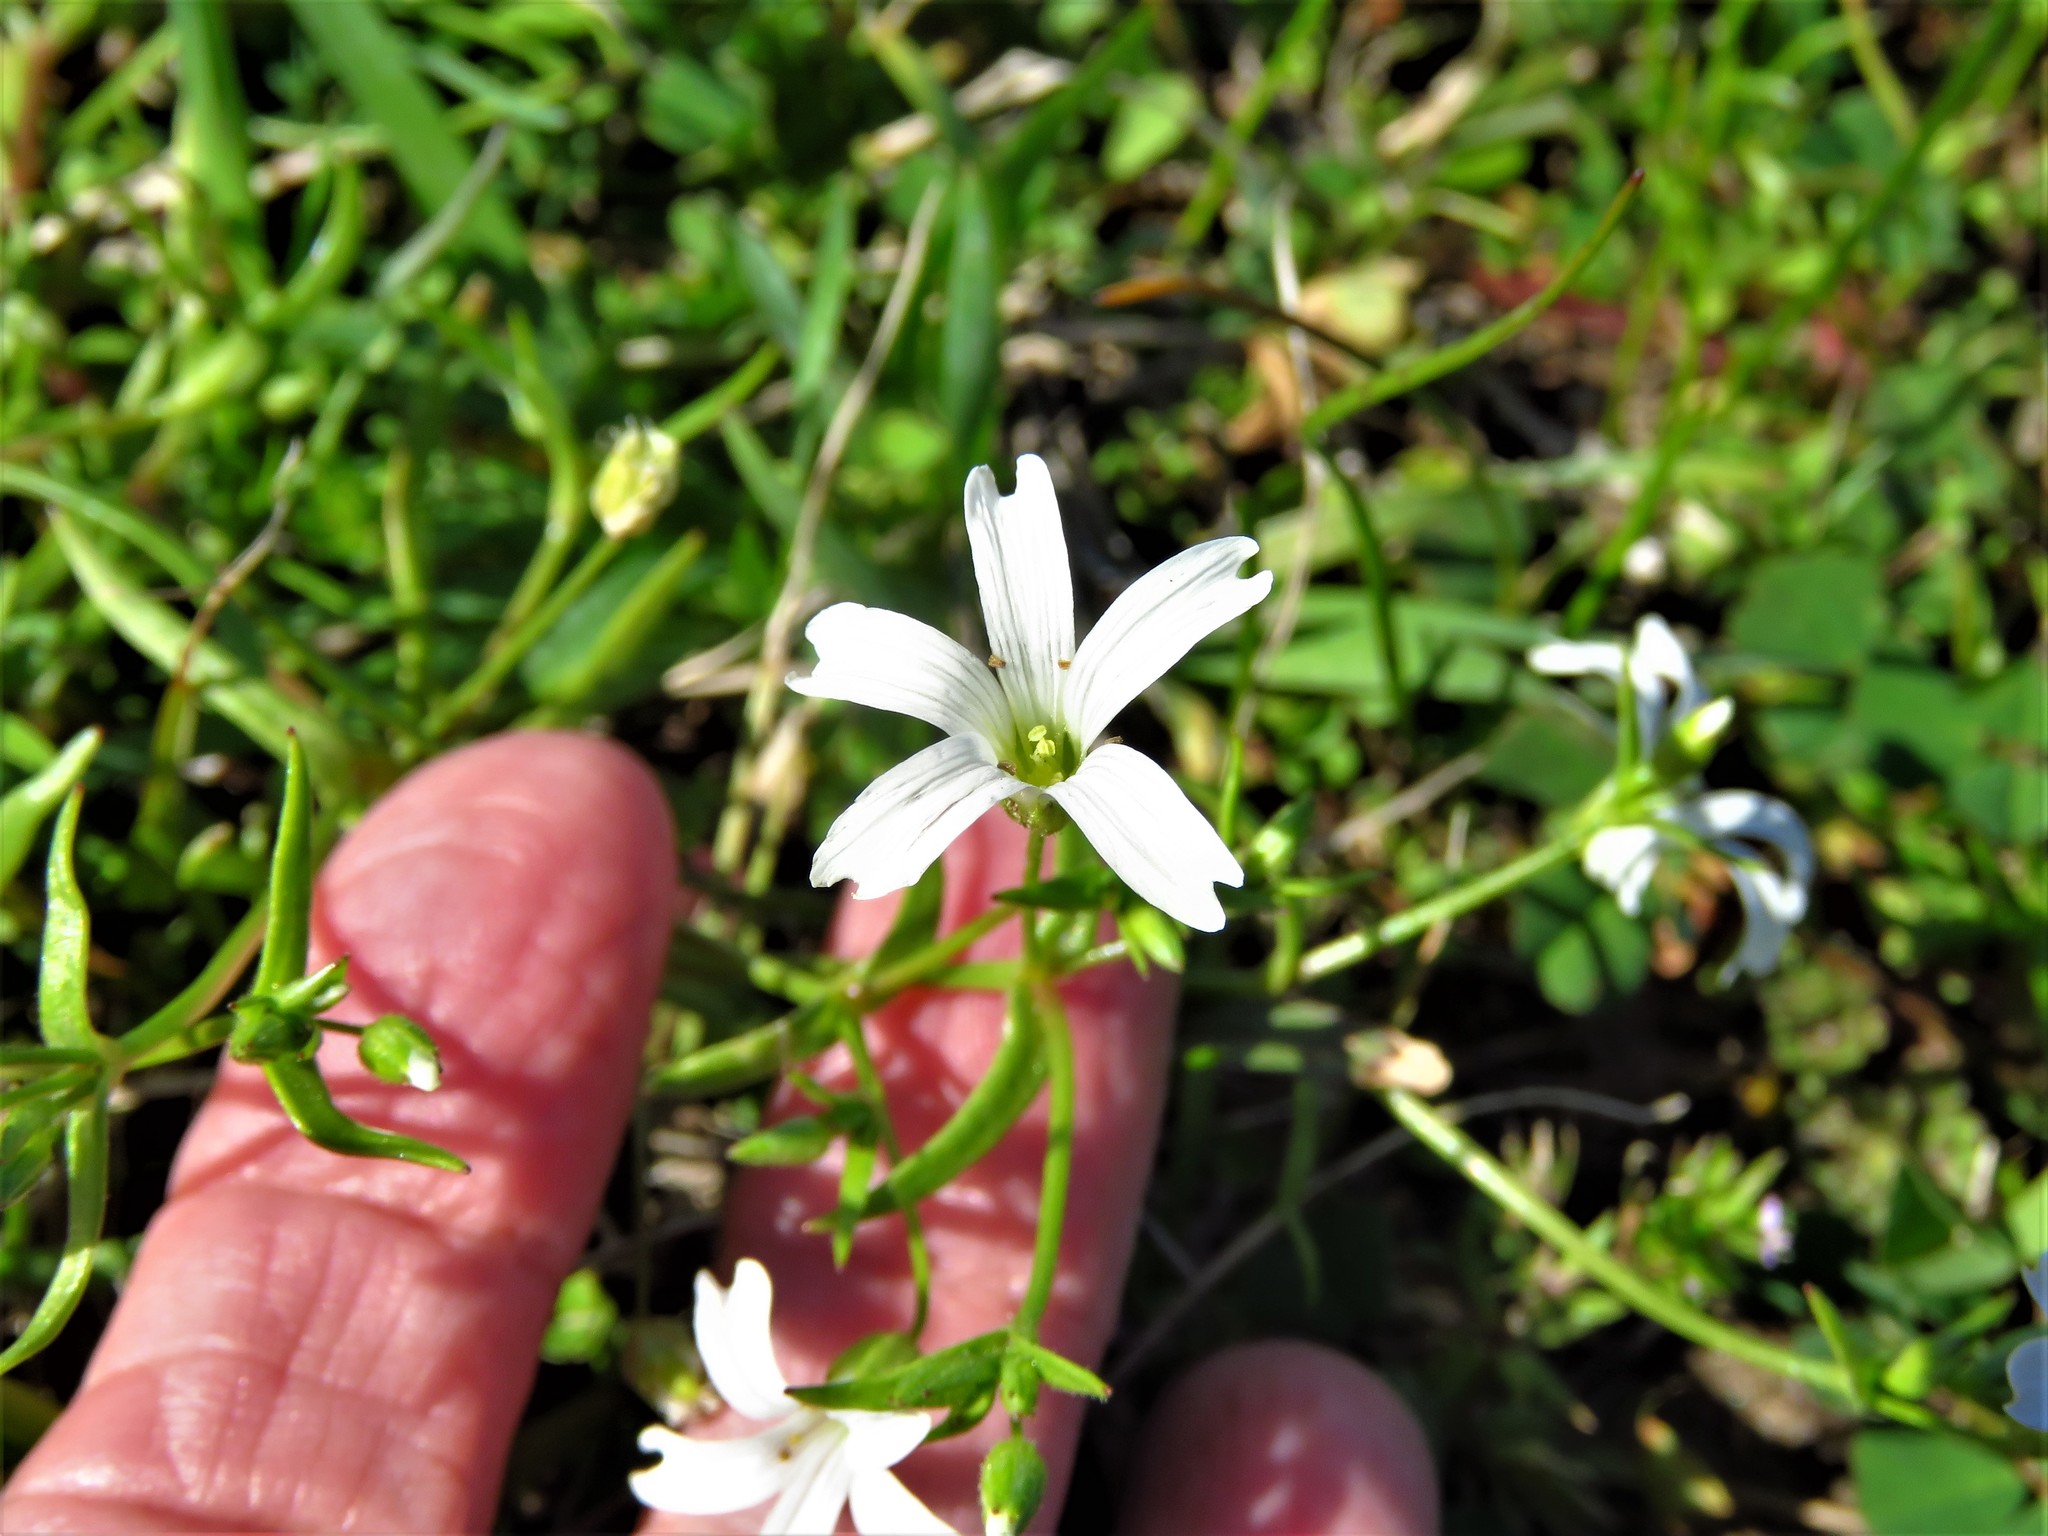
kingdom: Plantae
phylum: Tracheophyta
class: Magnoliopsida
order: Caryophyllales
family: Caryophyllaceae
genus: Mononeuria
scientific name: Mononeuria muscorum
